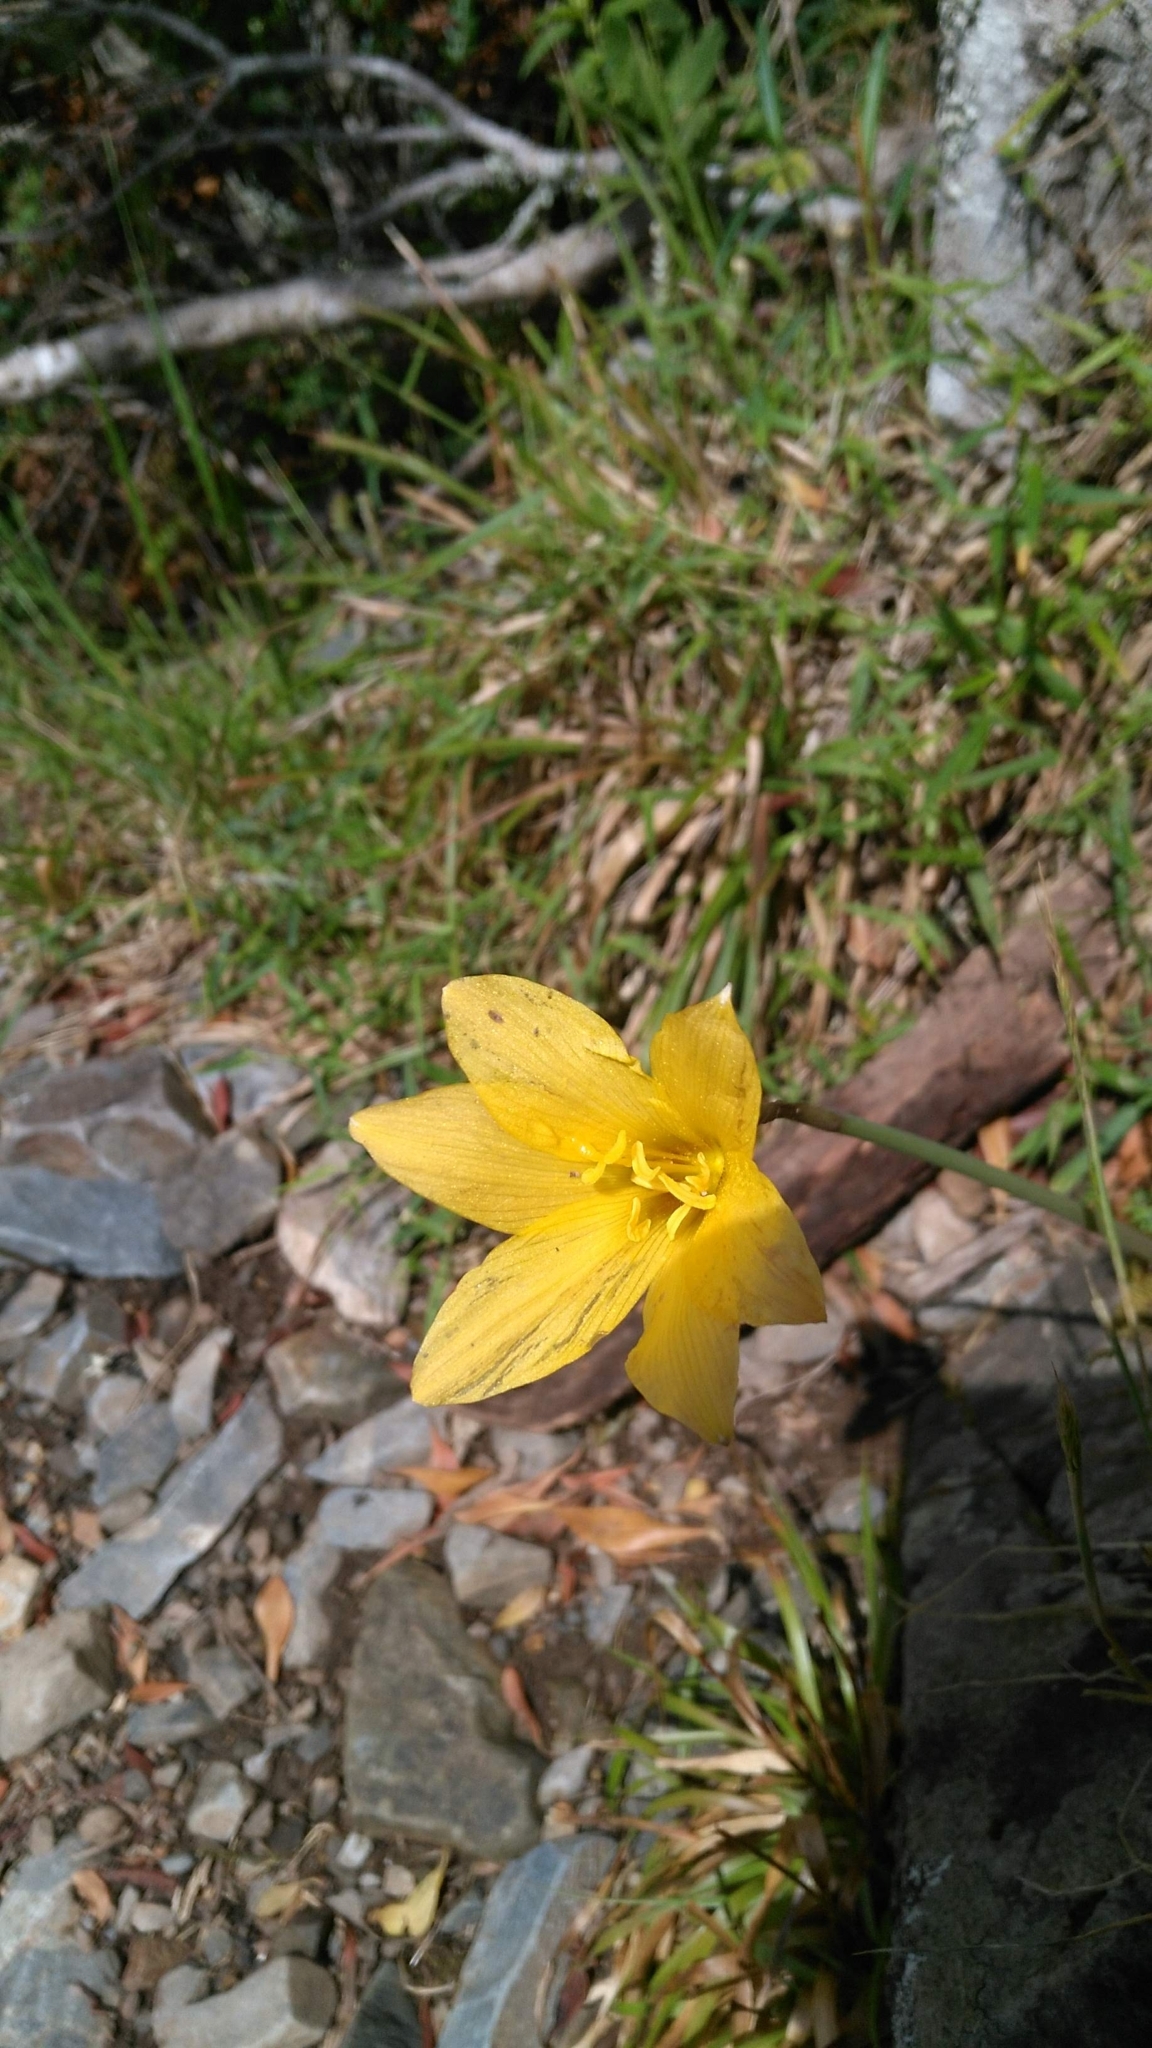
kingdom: Plantae
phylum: Tracheophyta
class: Liliopsida
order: Asparagales
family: Amaryllidaceae
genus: Zephyranthes
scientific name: Zephyranthes tubispatha
